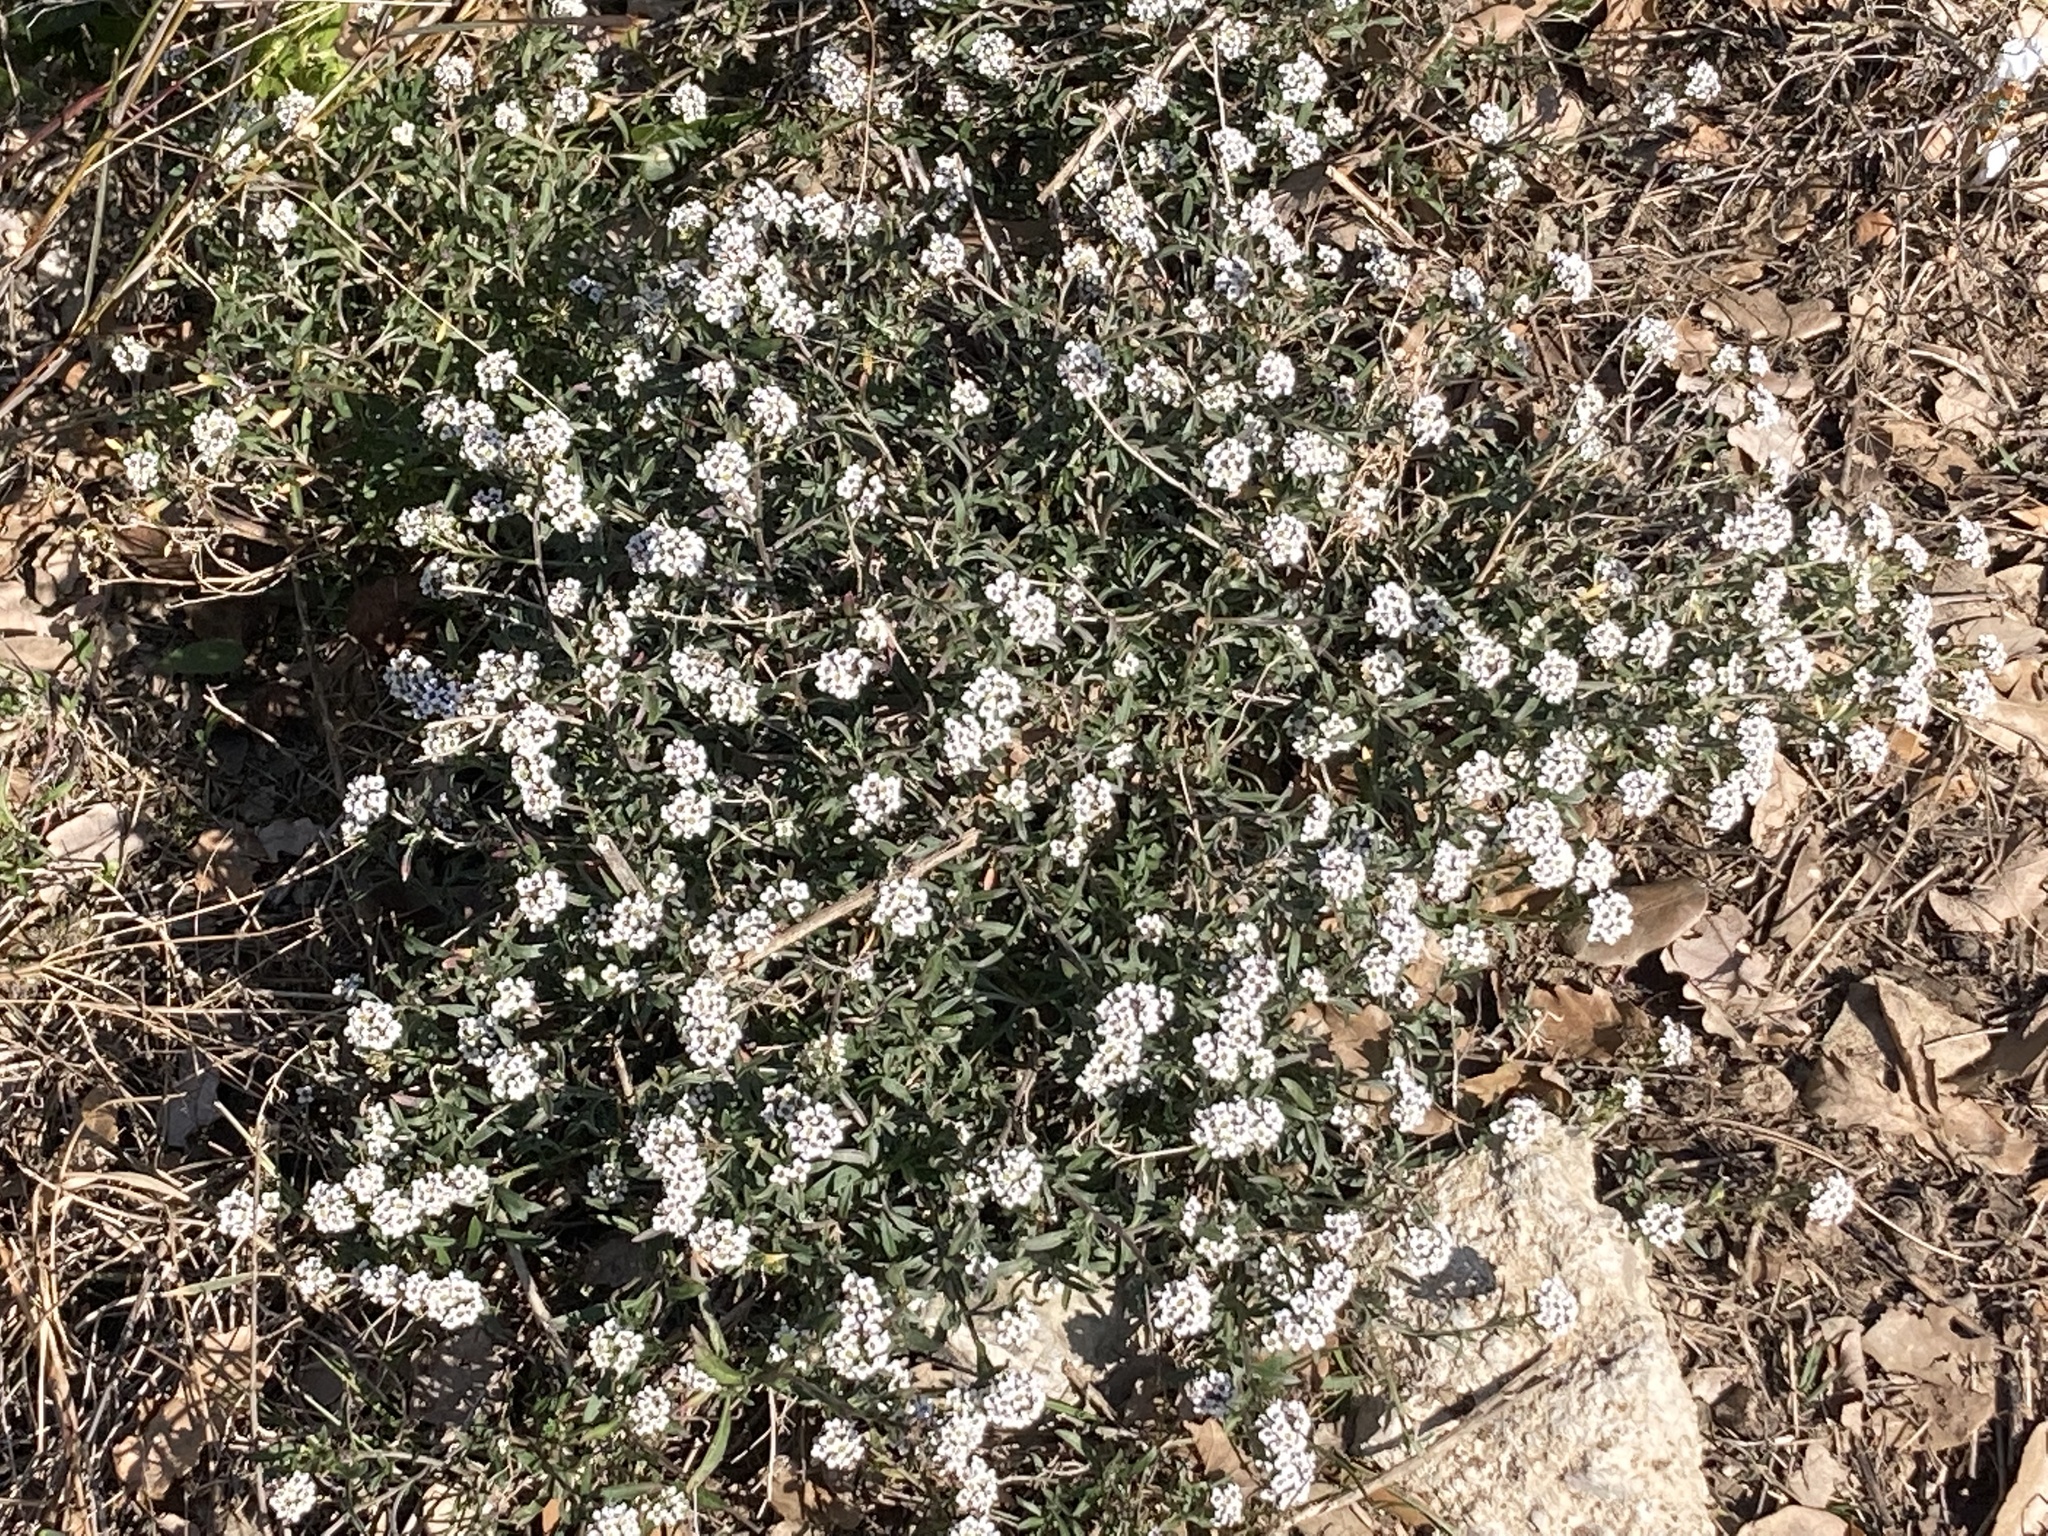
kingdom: Plantae
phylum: Tracheophyta
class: Magnoliopsida
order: Brassicales
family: Brassicaceae
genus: Lobularia
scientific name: Lobularia maritima
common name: Sweet alison
